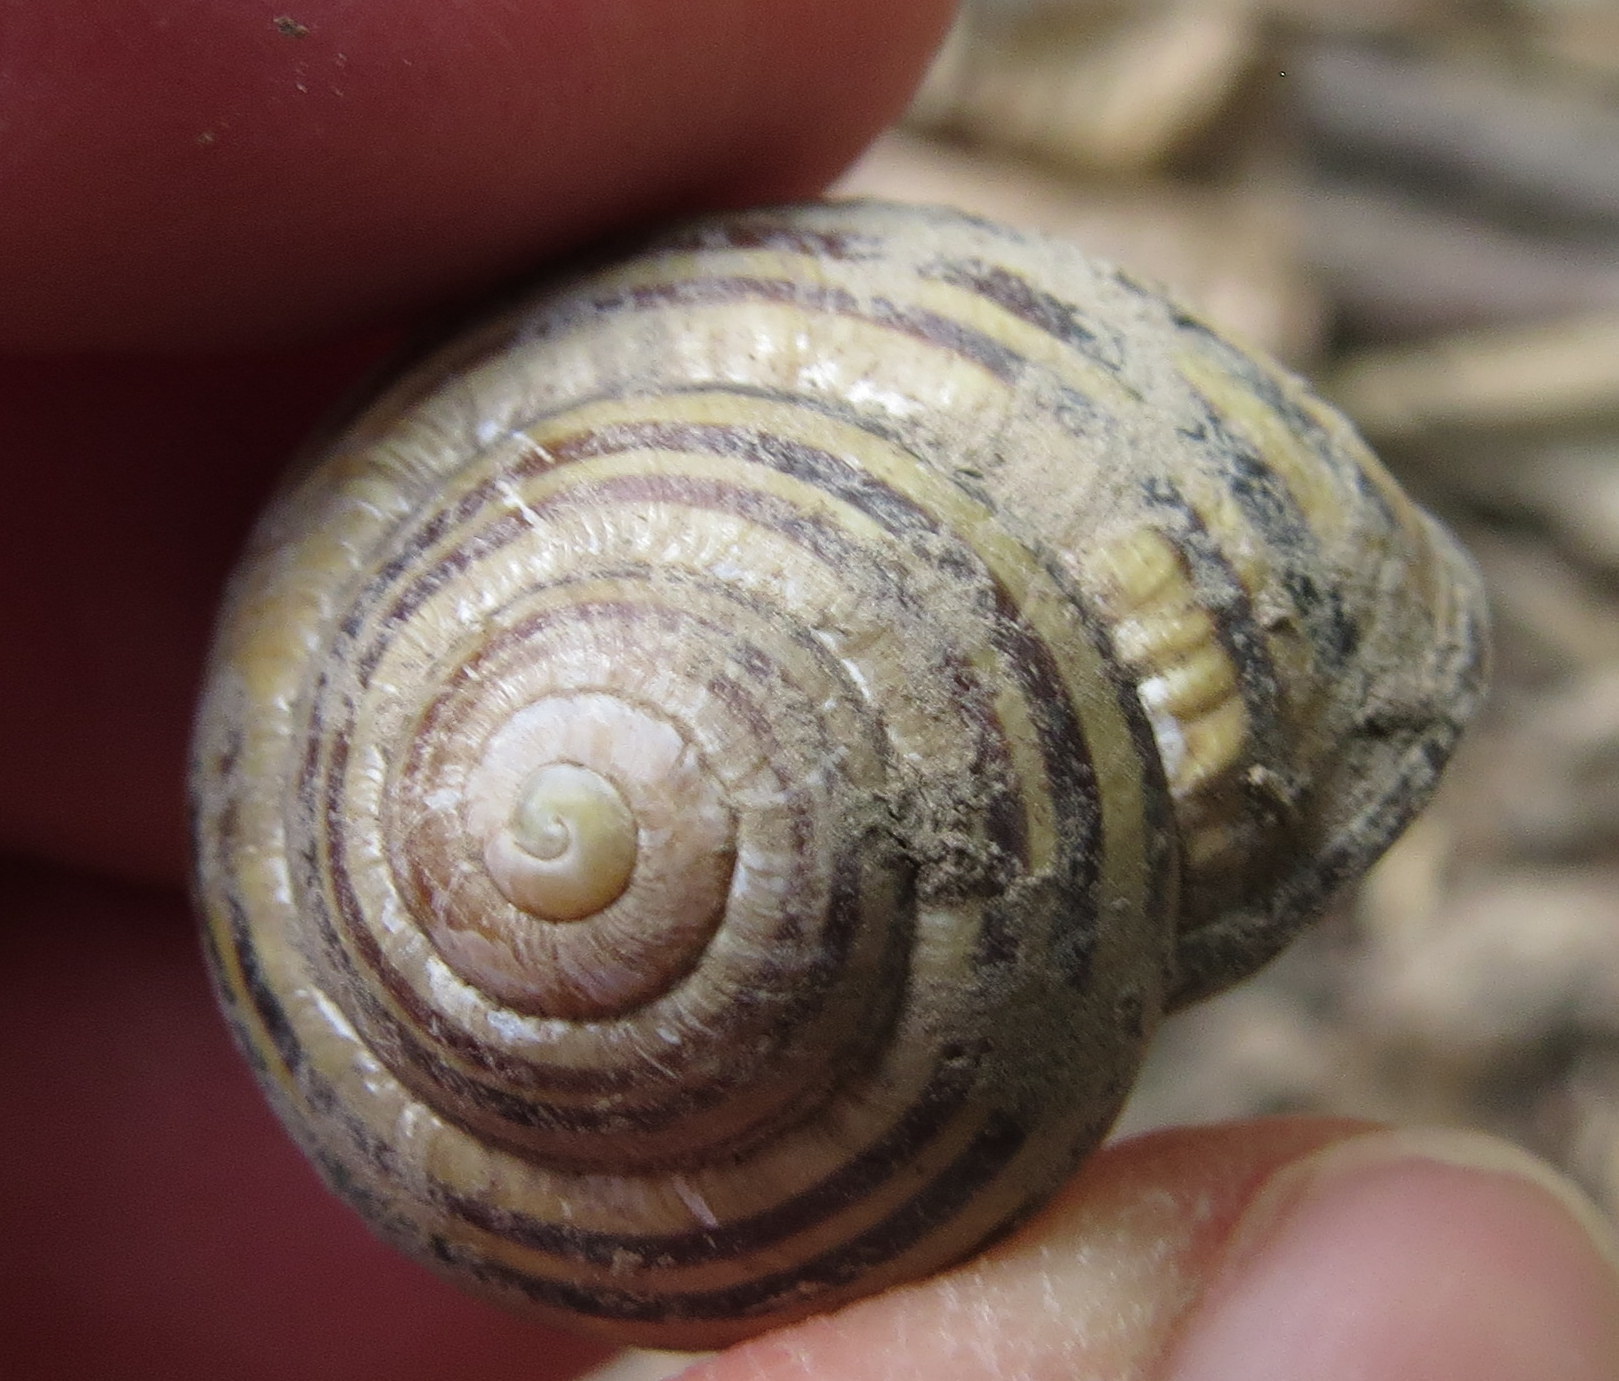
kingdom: Animalia
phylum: Mollusca
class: Gastropoda
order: Stylommatophora
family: Helicidae
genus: Cepaea
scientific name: Cepaea nemoralis
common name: Grovesnail
